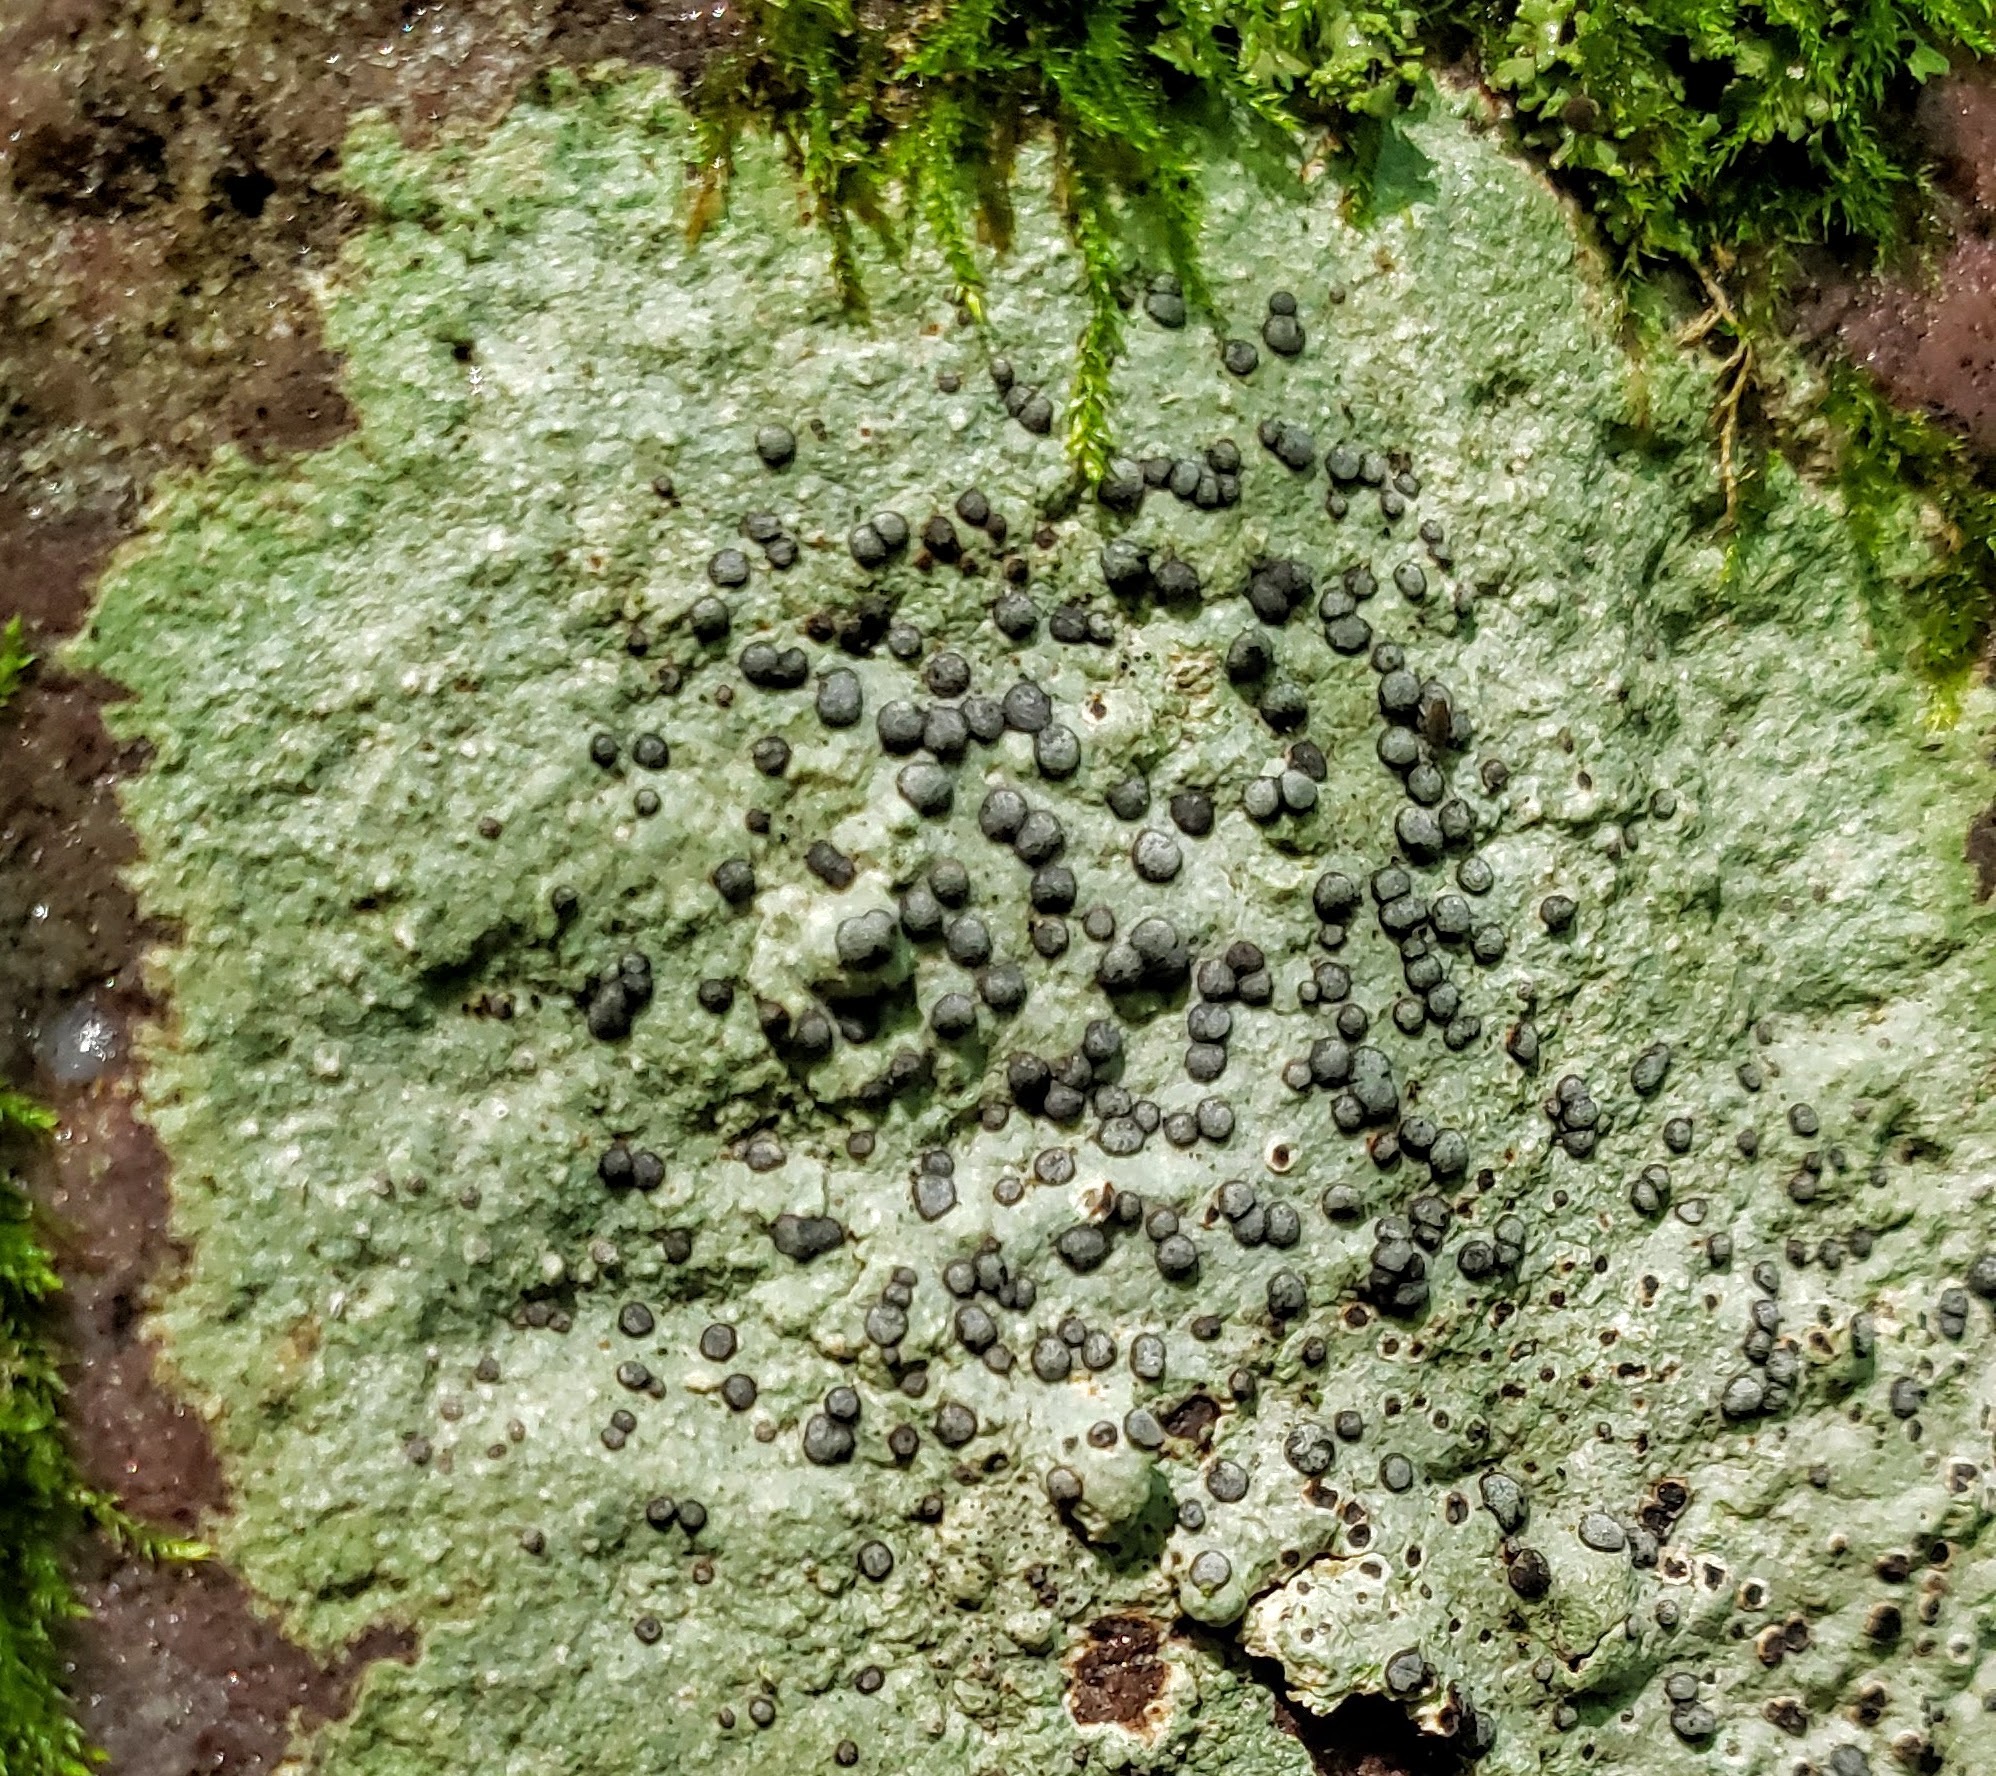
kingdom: Fungi
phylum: Ascomycota
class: Lecanoromycetes
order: Lecideales
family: Lecideaceae
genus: Porpidia
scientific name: Porpidia albocaerulescens
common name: Smokey-eyed boulder lichen
